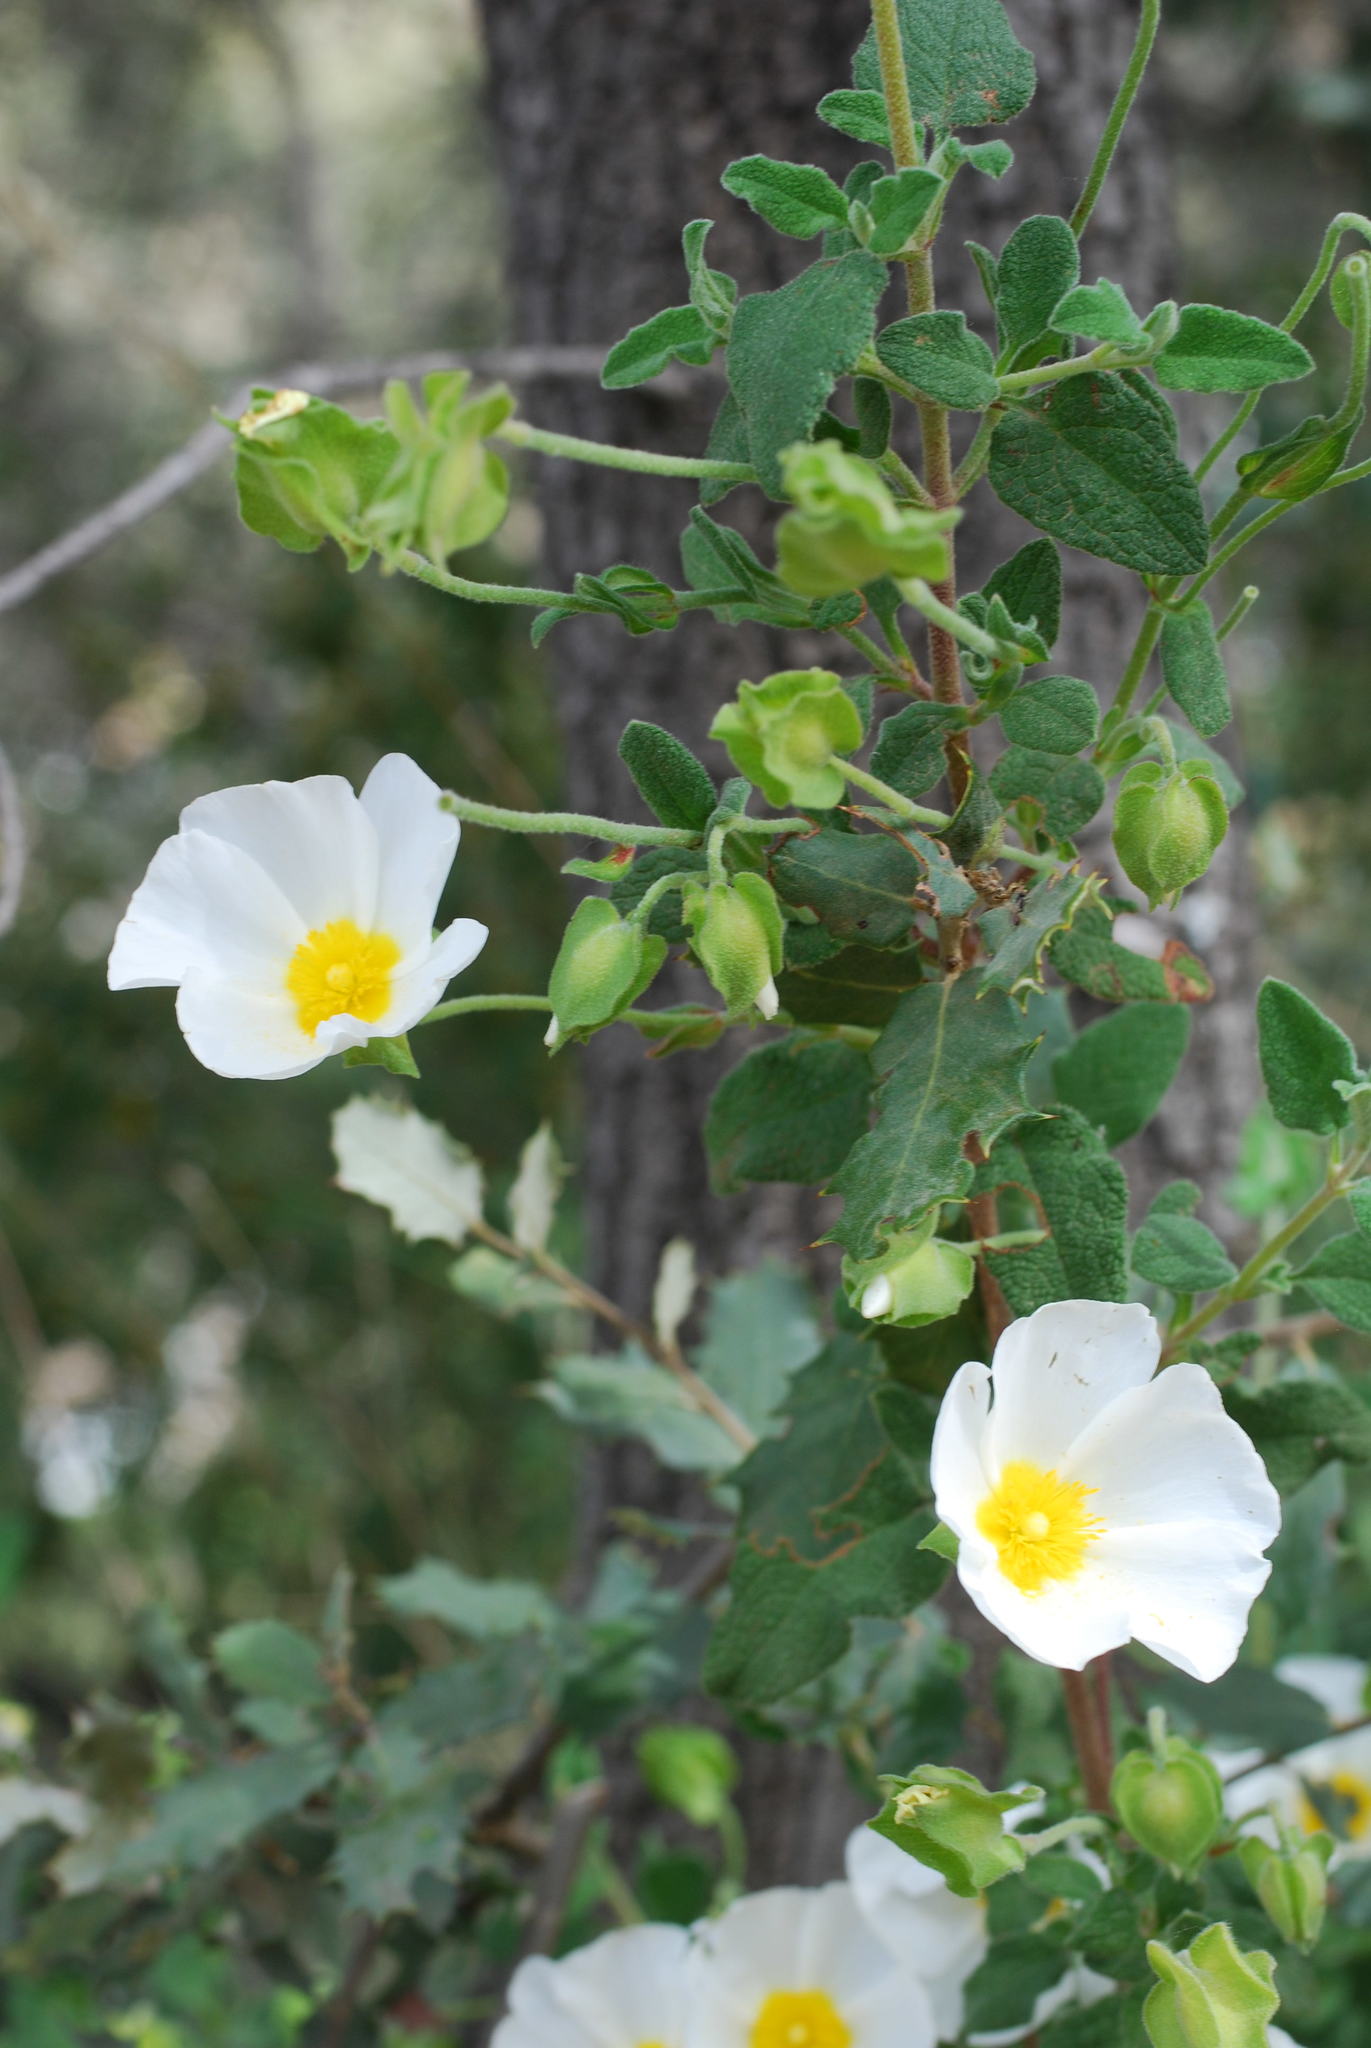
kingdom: Plantae
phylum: Tracheophyta
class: Magnoliopsida
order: Malvales
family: Cistaceae
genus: Cistus
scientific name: Cistus salviifolius
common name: Salvia cistus
